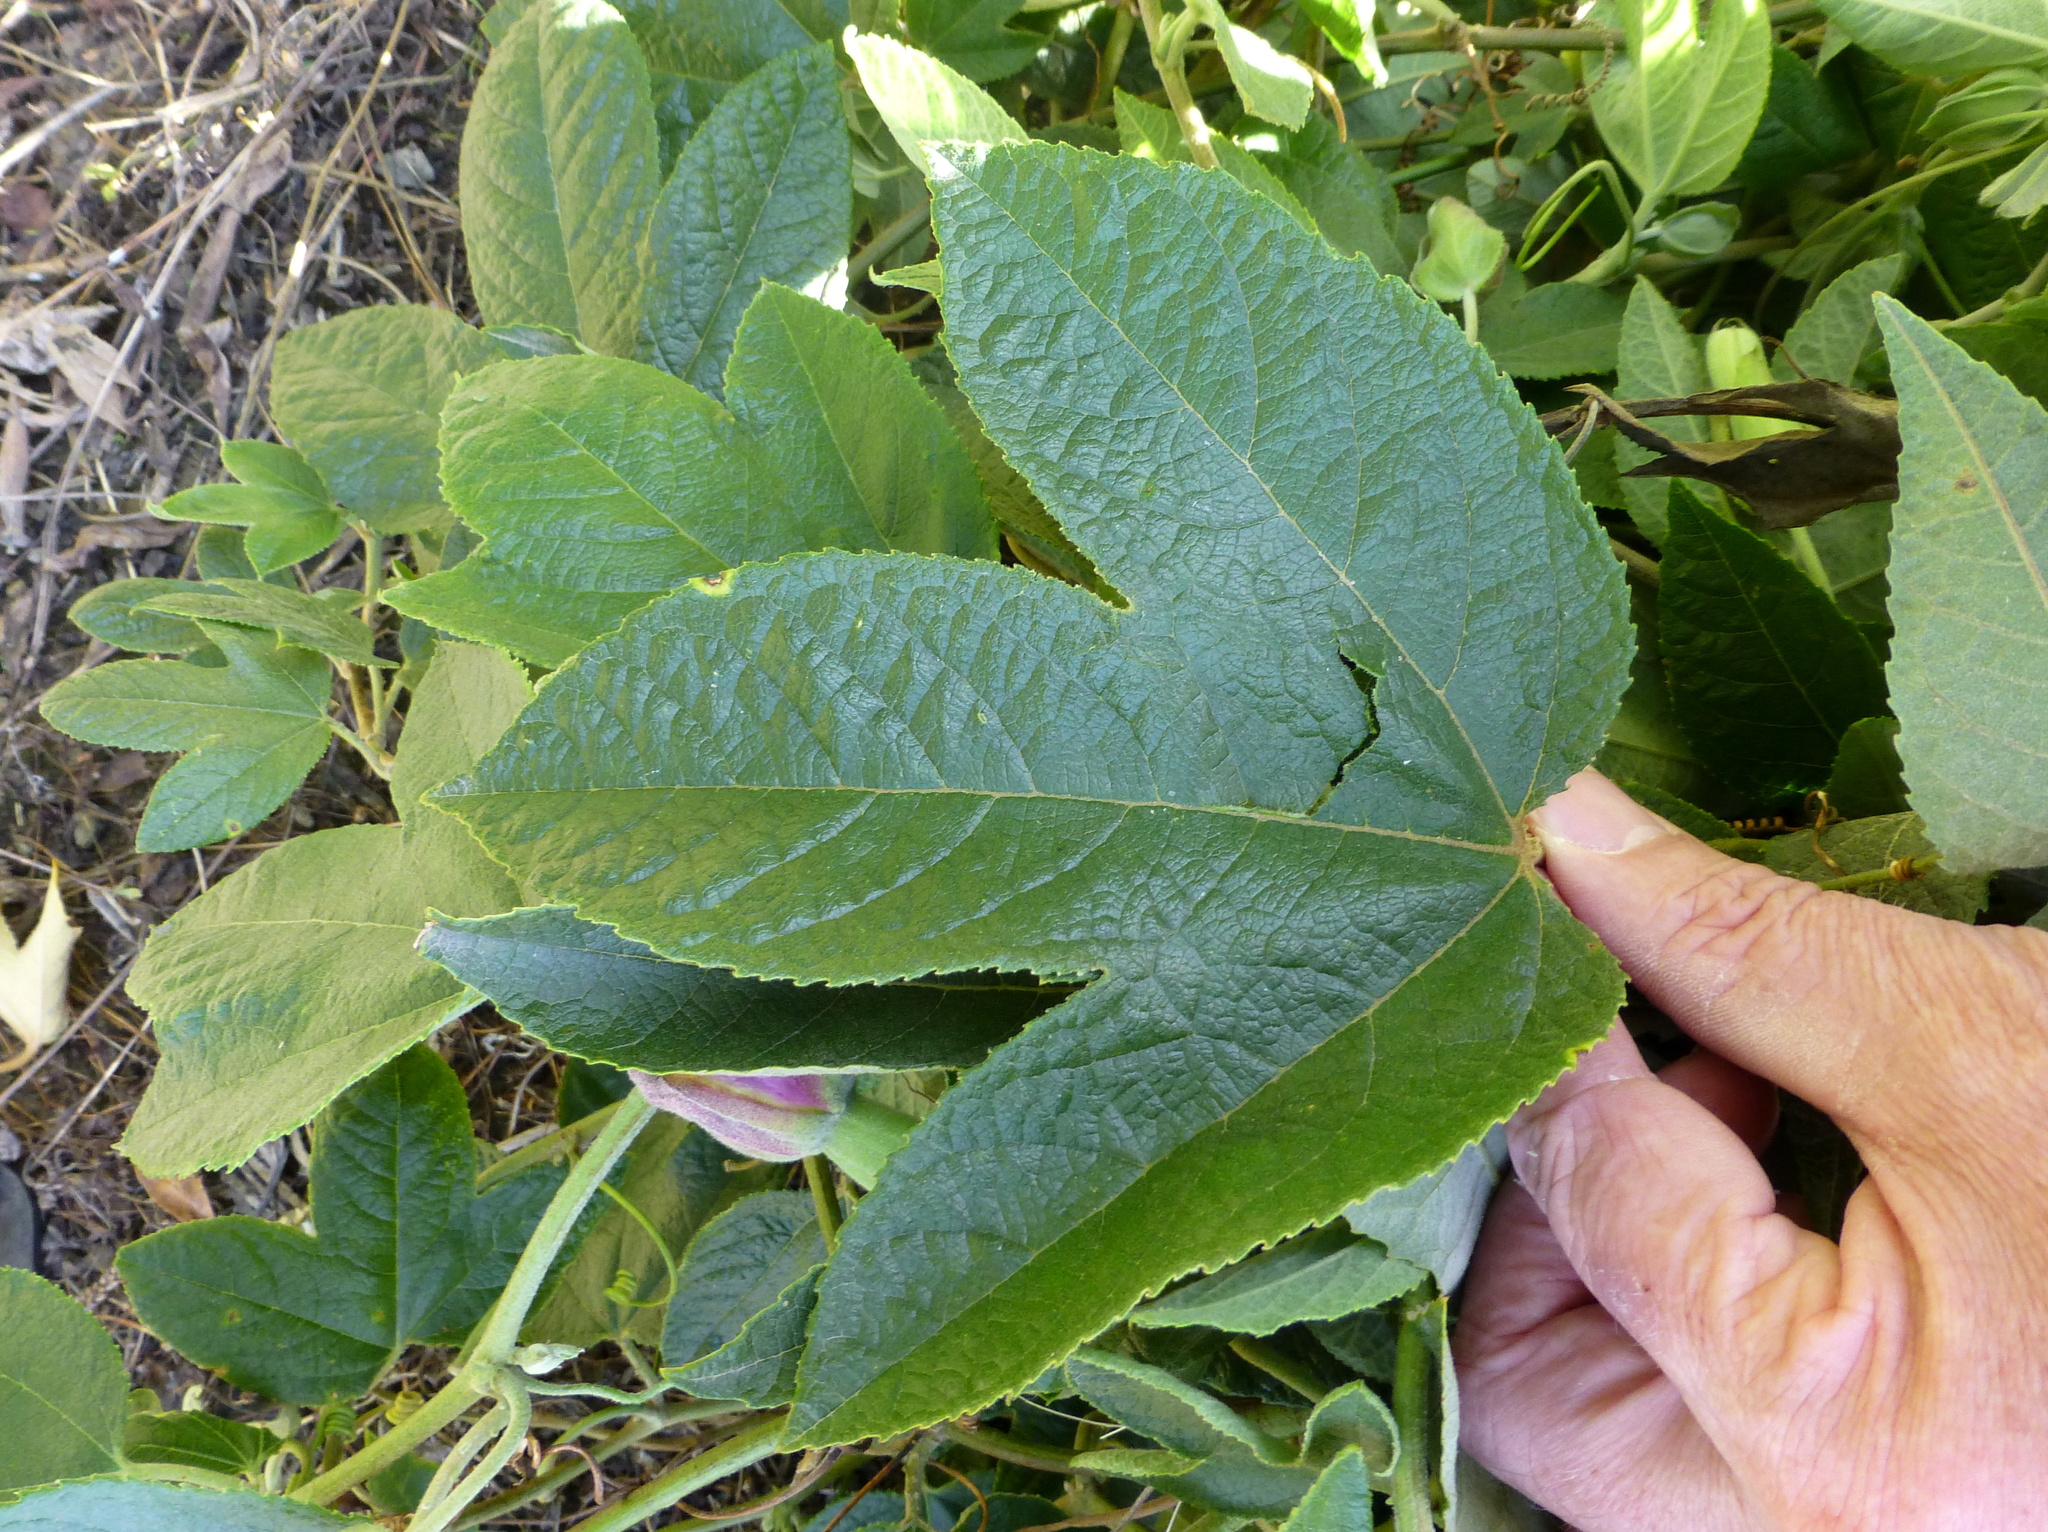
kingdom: Plantae
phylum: Tracheophyta
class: Magnoliopsida
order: Malpighiales
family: Passifloraceae
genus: Passiflora
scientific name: Passiflora rosea
